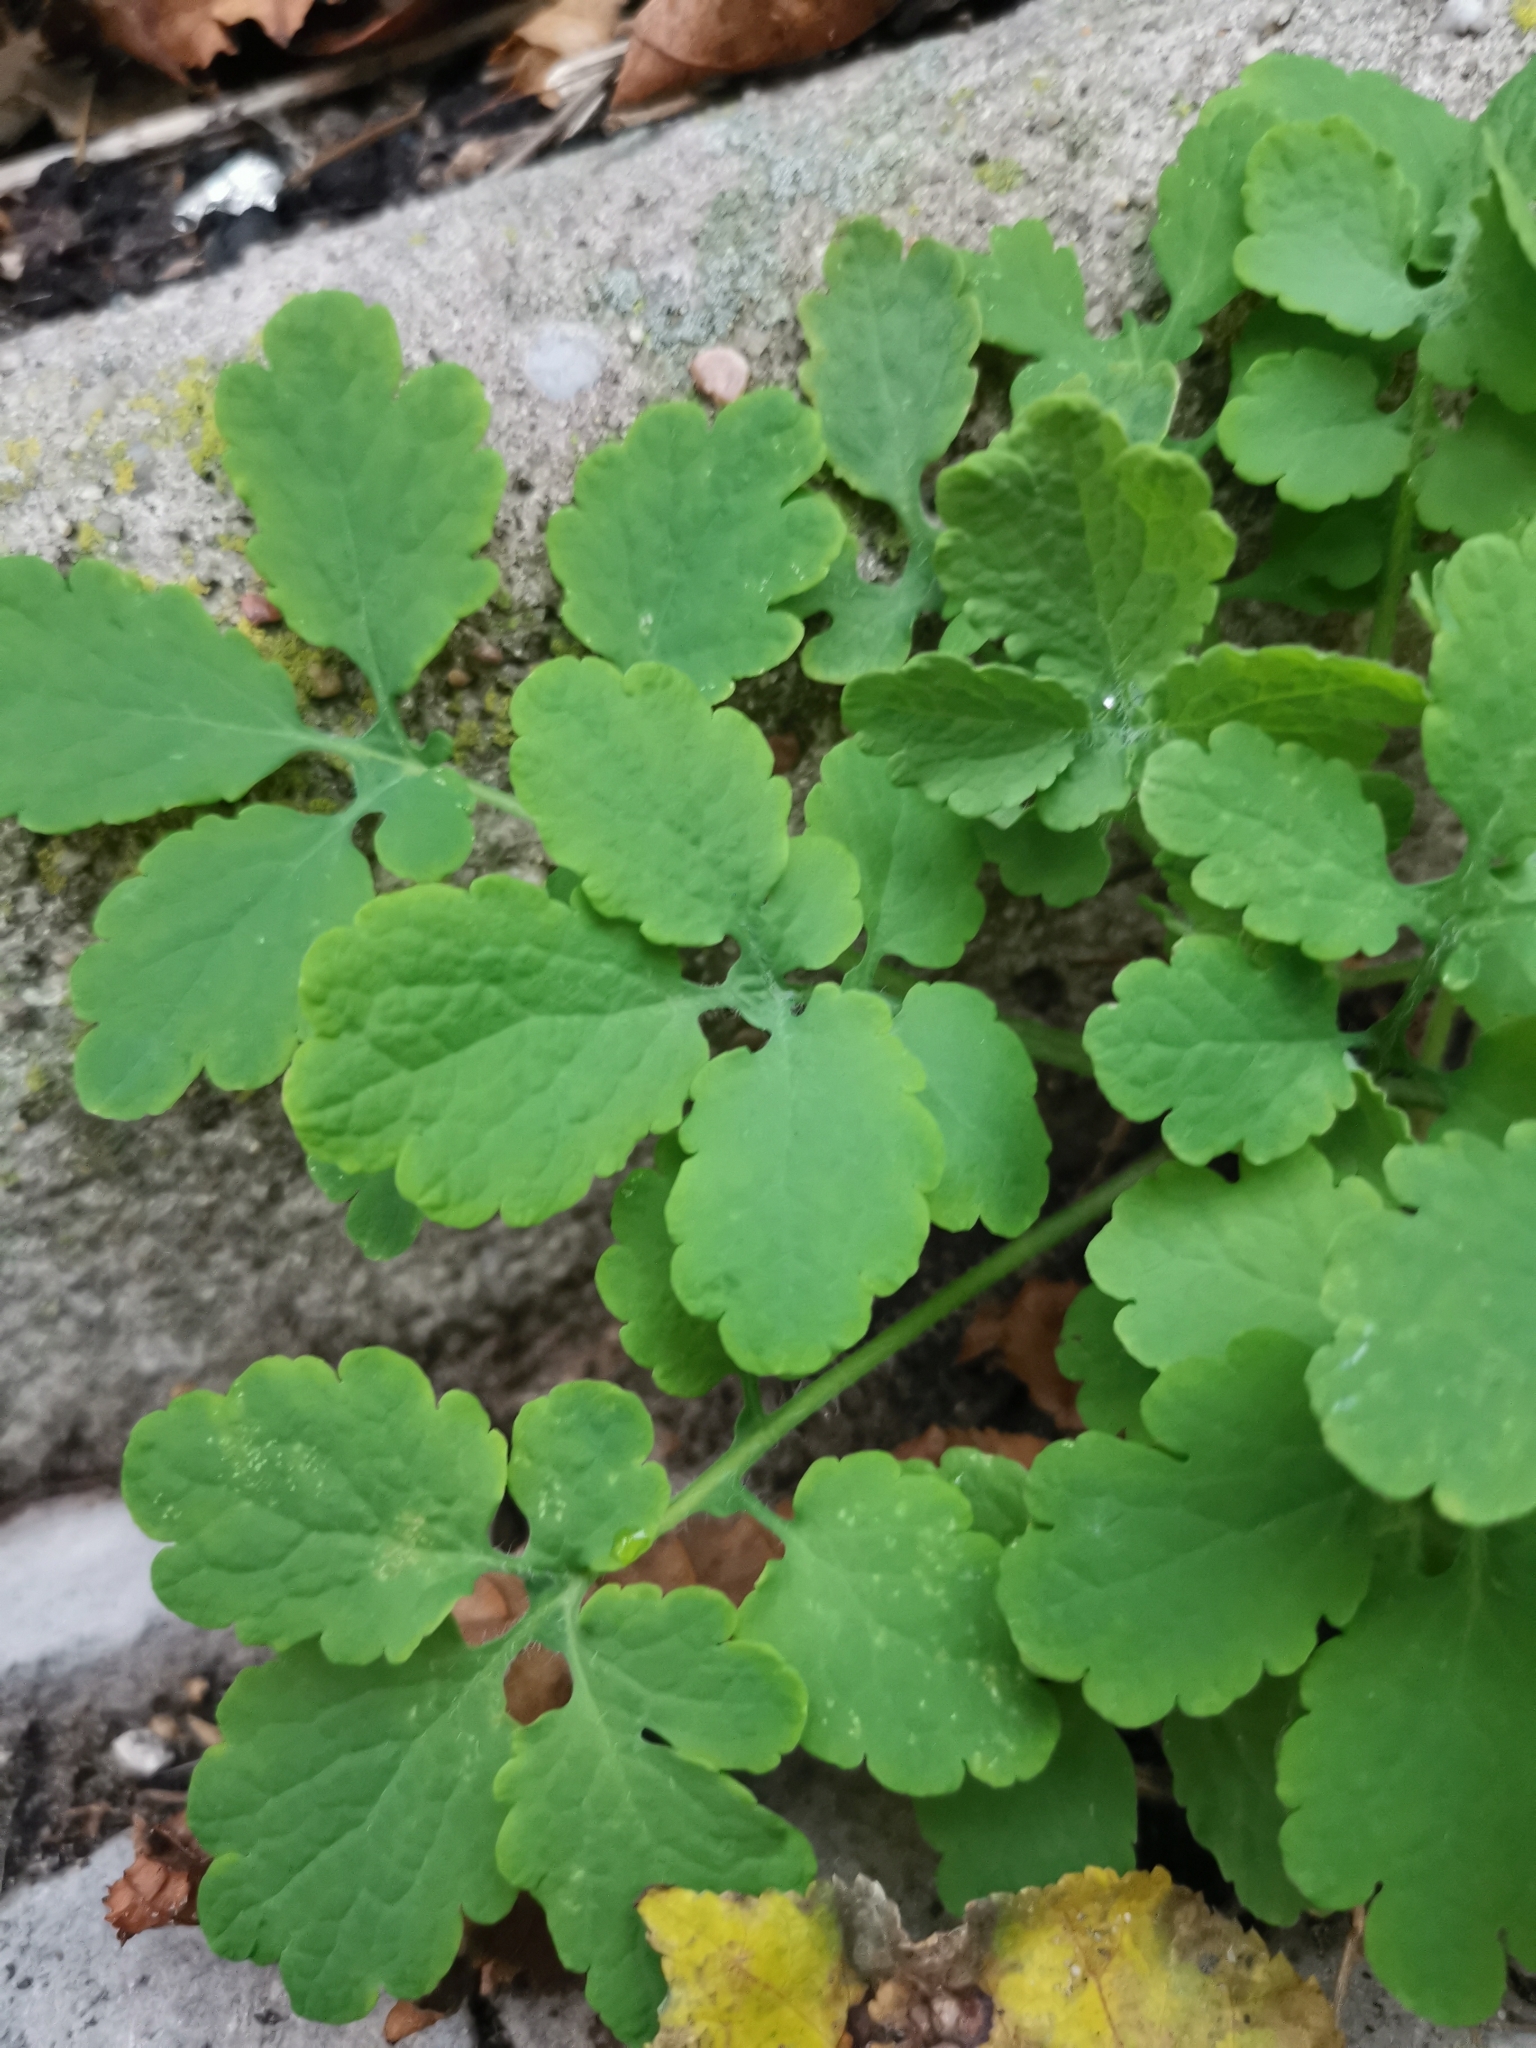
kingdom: Plantae
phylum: Tracheophyta
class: Magnoliopsida
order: Ranunculales
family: Papaveraceae
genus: Chelidonium
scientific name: Chelidonium majus
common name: Greater celandine
